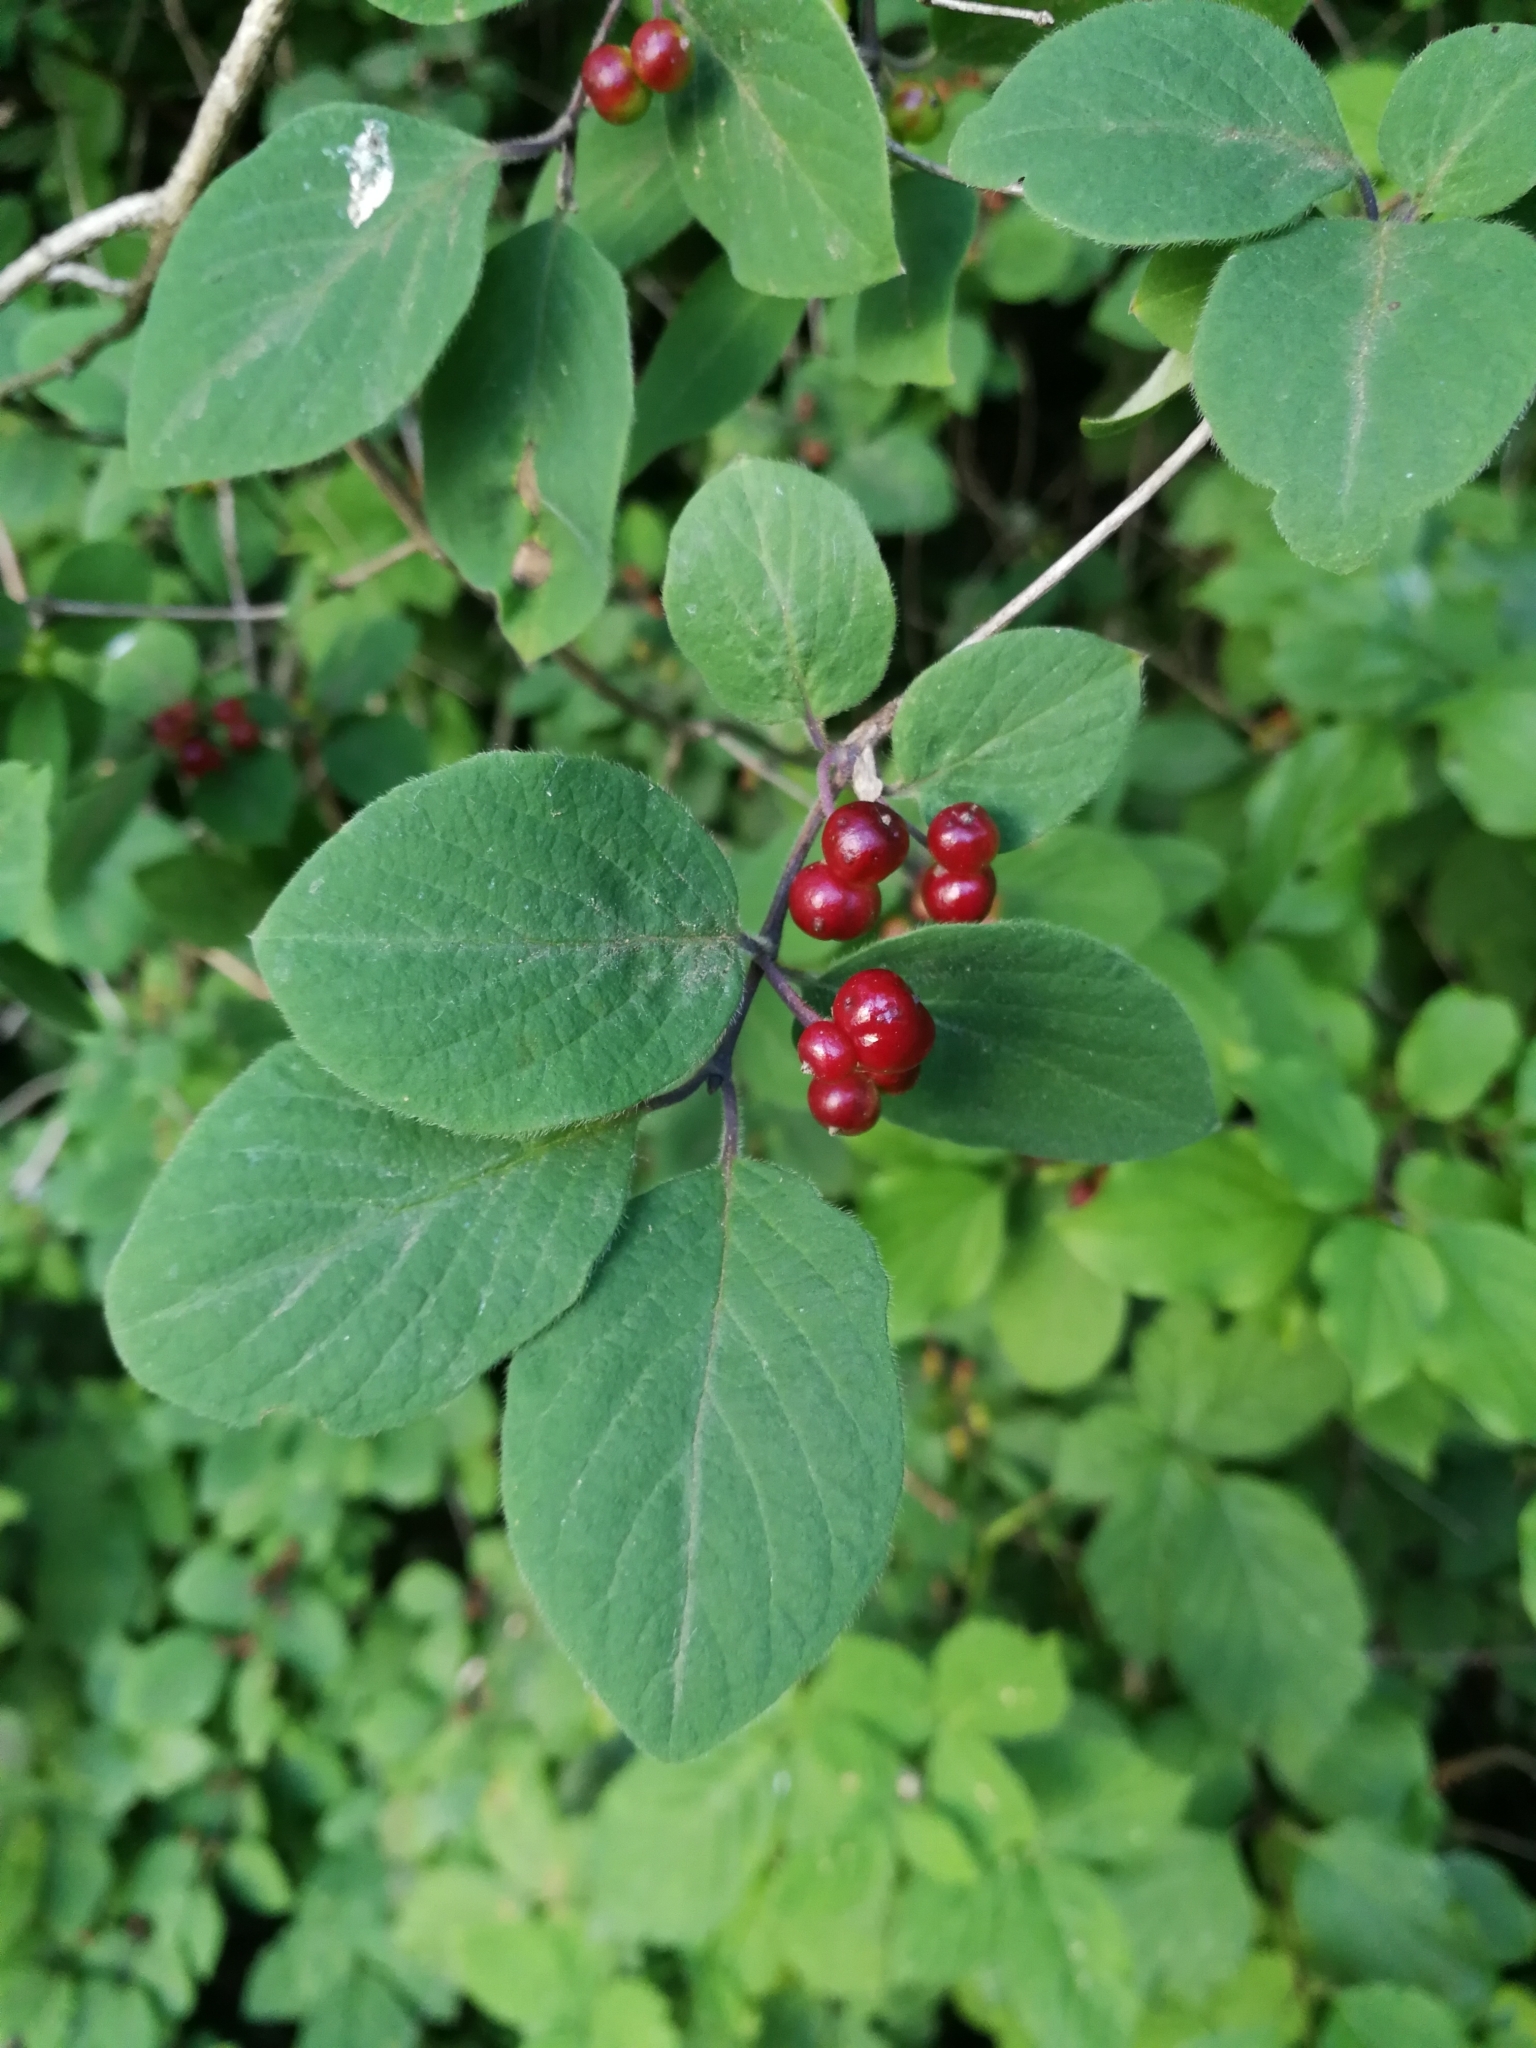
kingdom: Plantae
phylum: Tracheophyta
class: Magnoliopsida
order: Dipsacales
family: Caprifoliaceae
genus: Lonicera
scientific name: Lonicera xylosteum
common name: Fly honeysuckle
